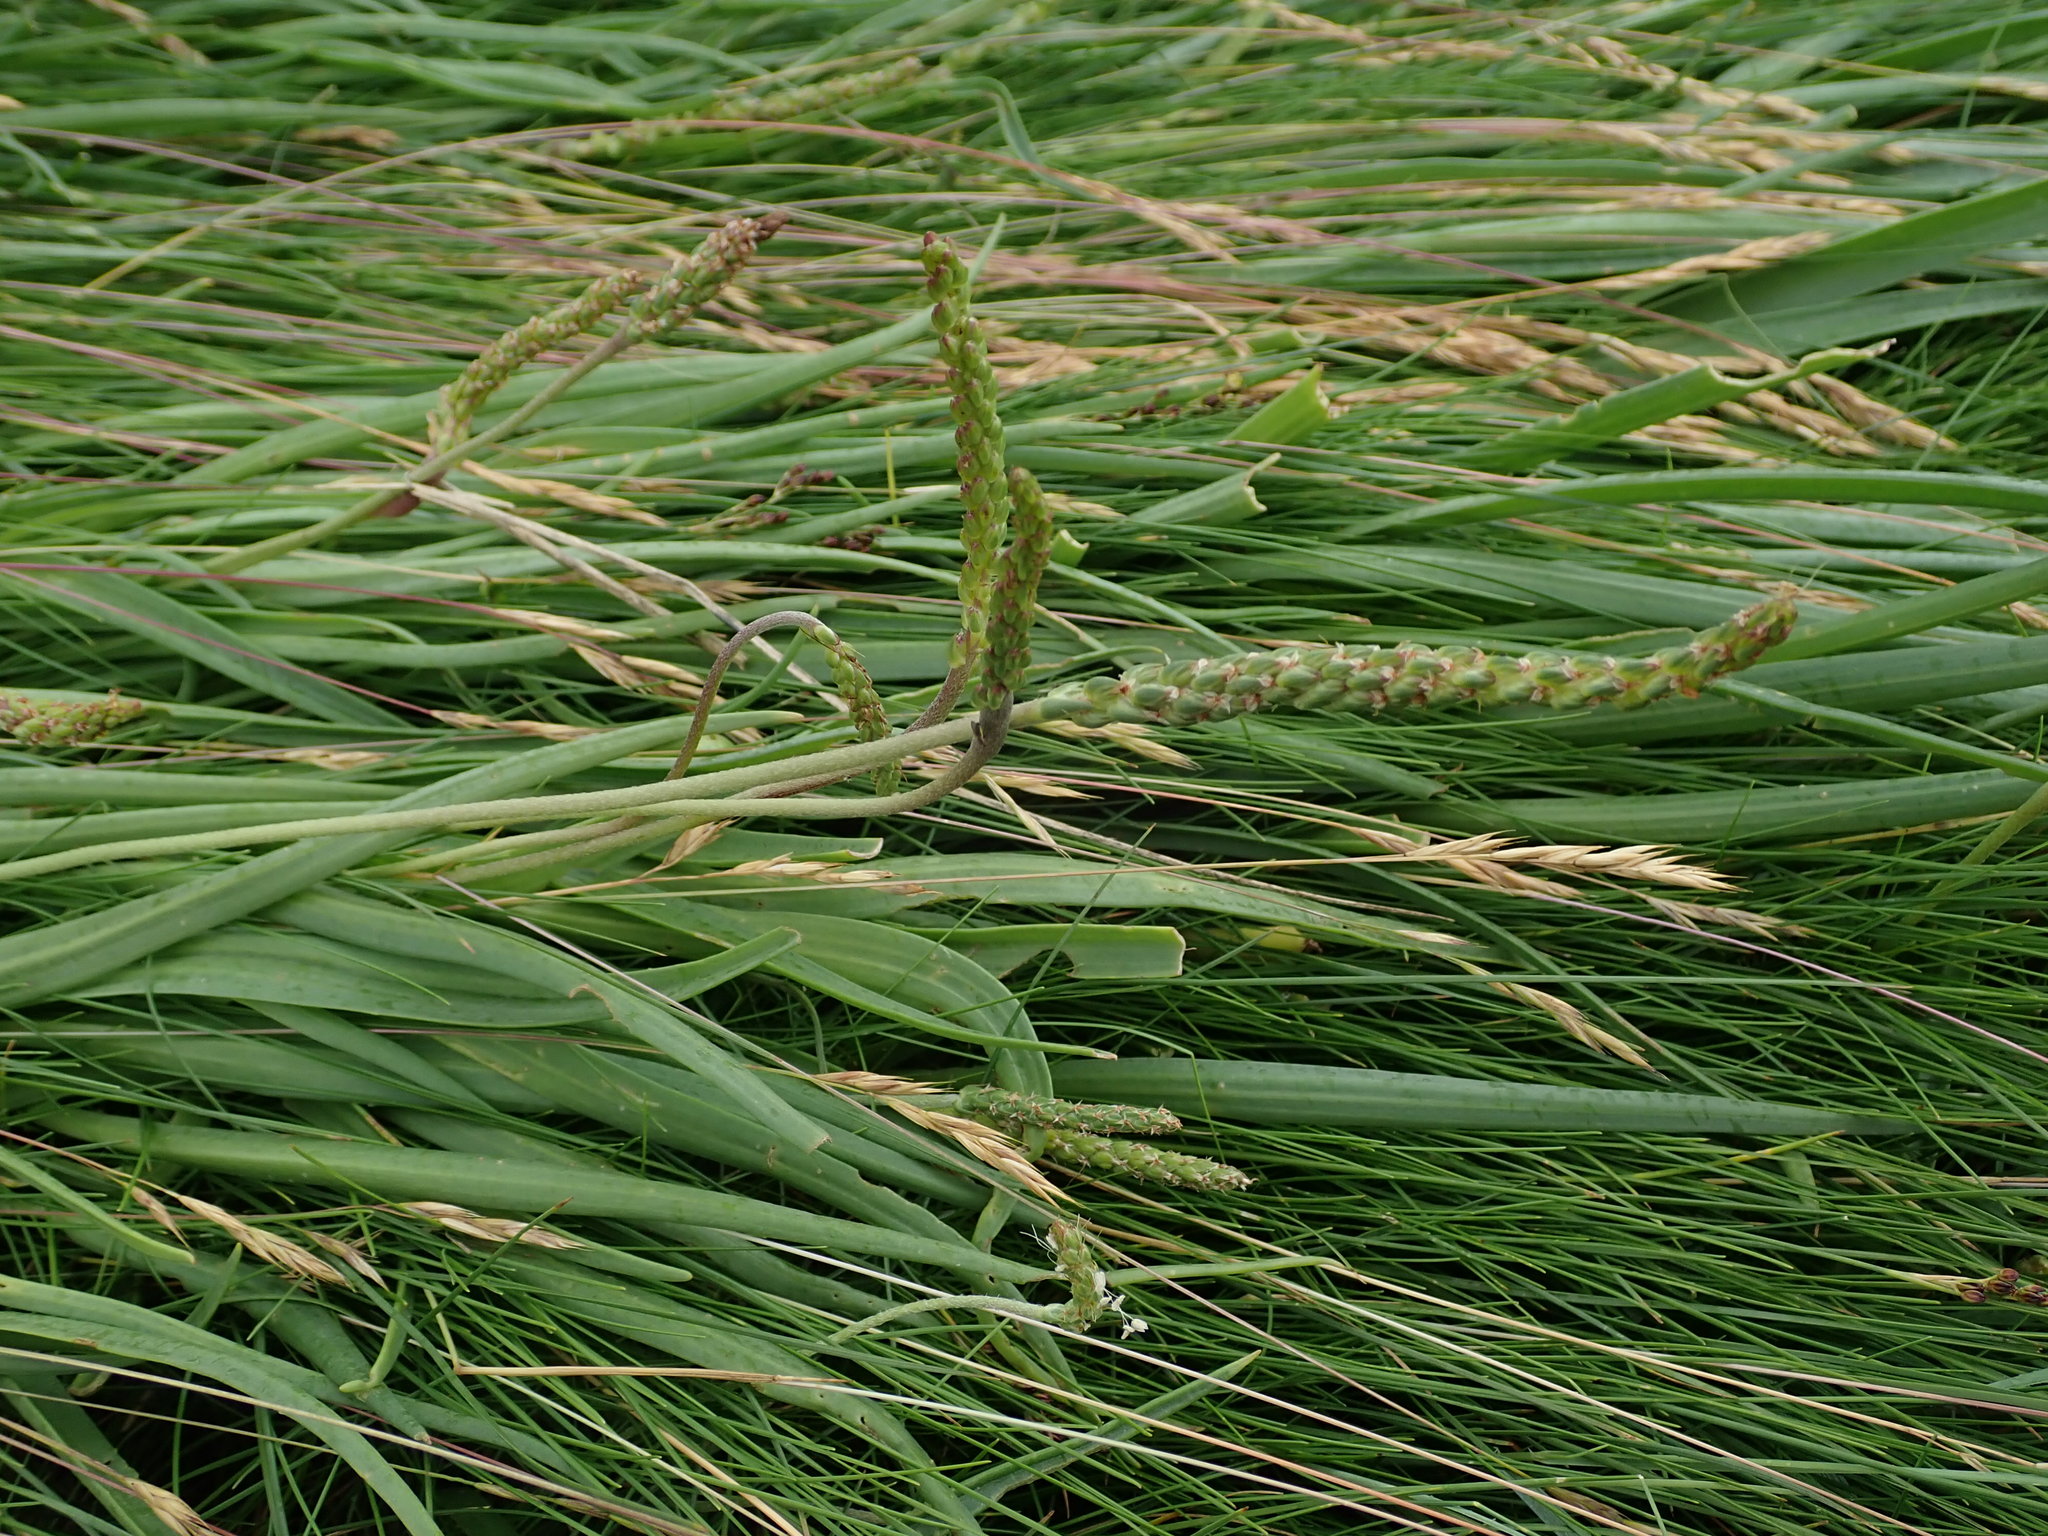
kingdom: Plantae
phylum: Tracheophyta
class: Magnoliopsida
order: Lamiales
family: Plantaginaceae
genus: Plantago
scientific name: Plantago maritima
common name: Sea plantain
